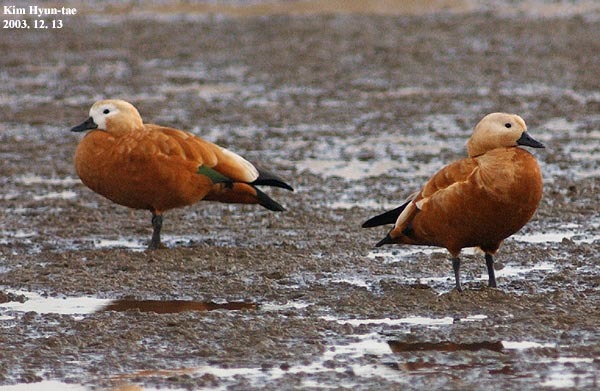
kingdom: Animalia
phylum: Chordata
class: Aves
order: Anseriformes
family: Anatidae
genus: Tadorna
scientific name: Tadorna ferruginea
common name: Ruddy shelduck
